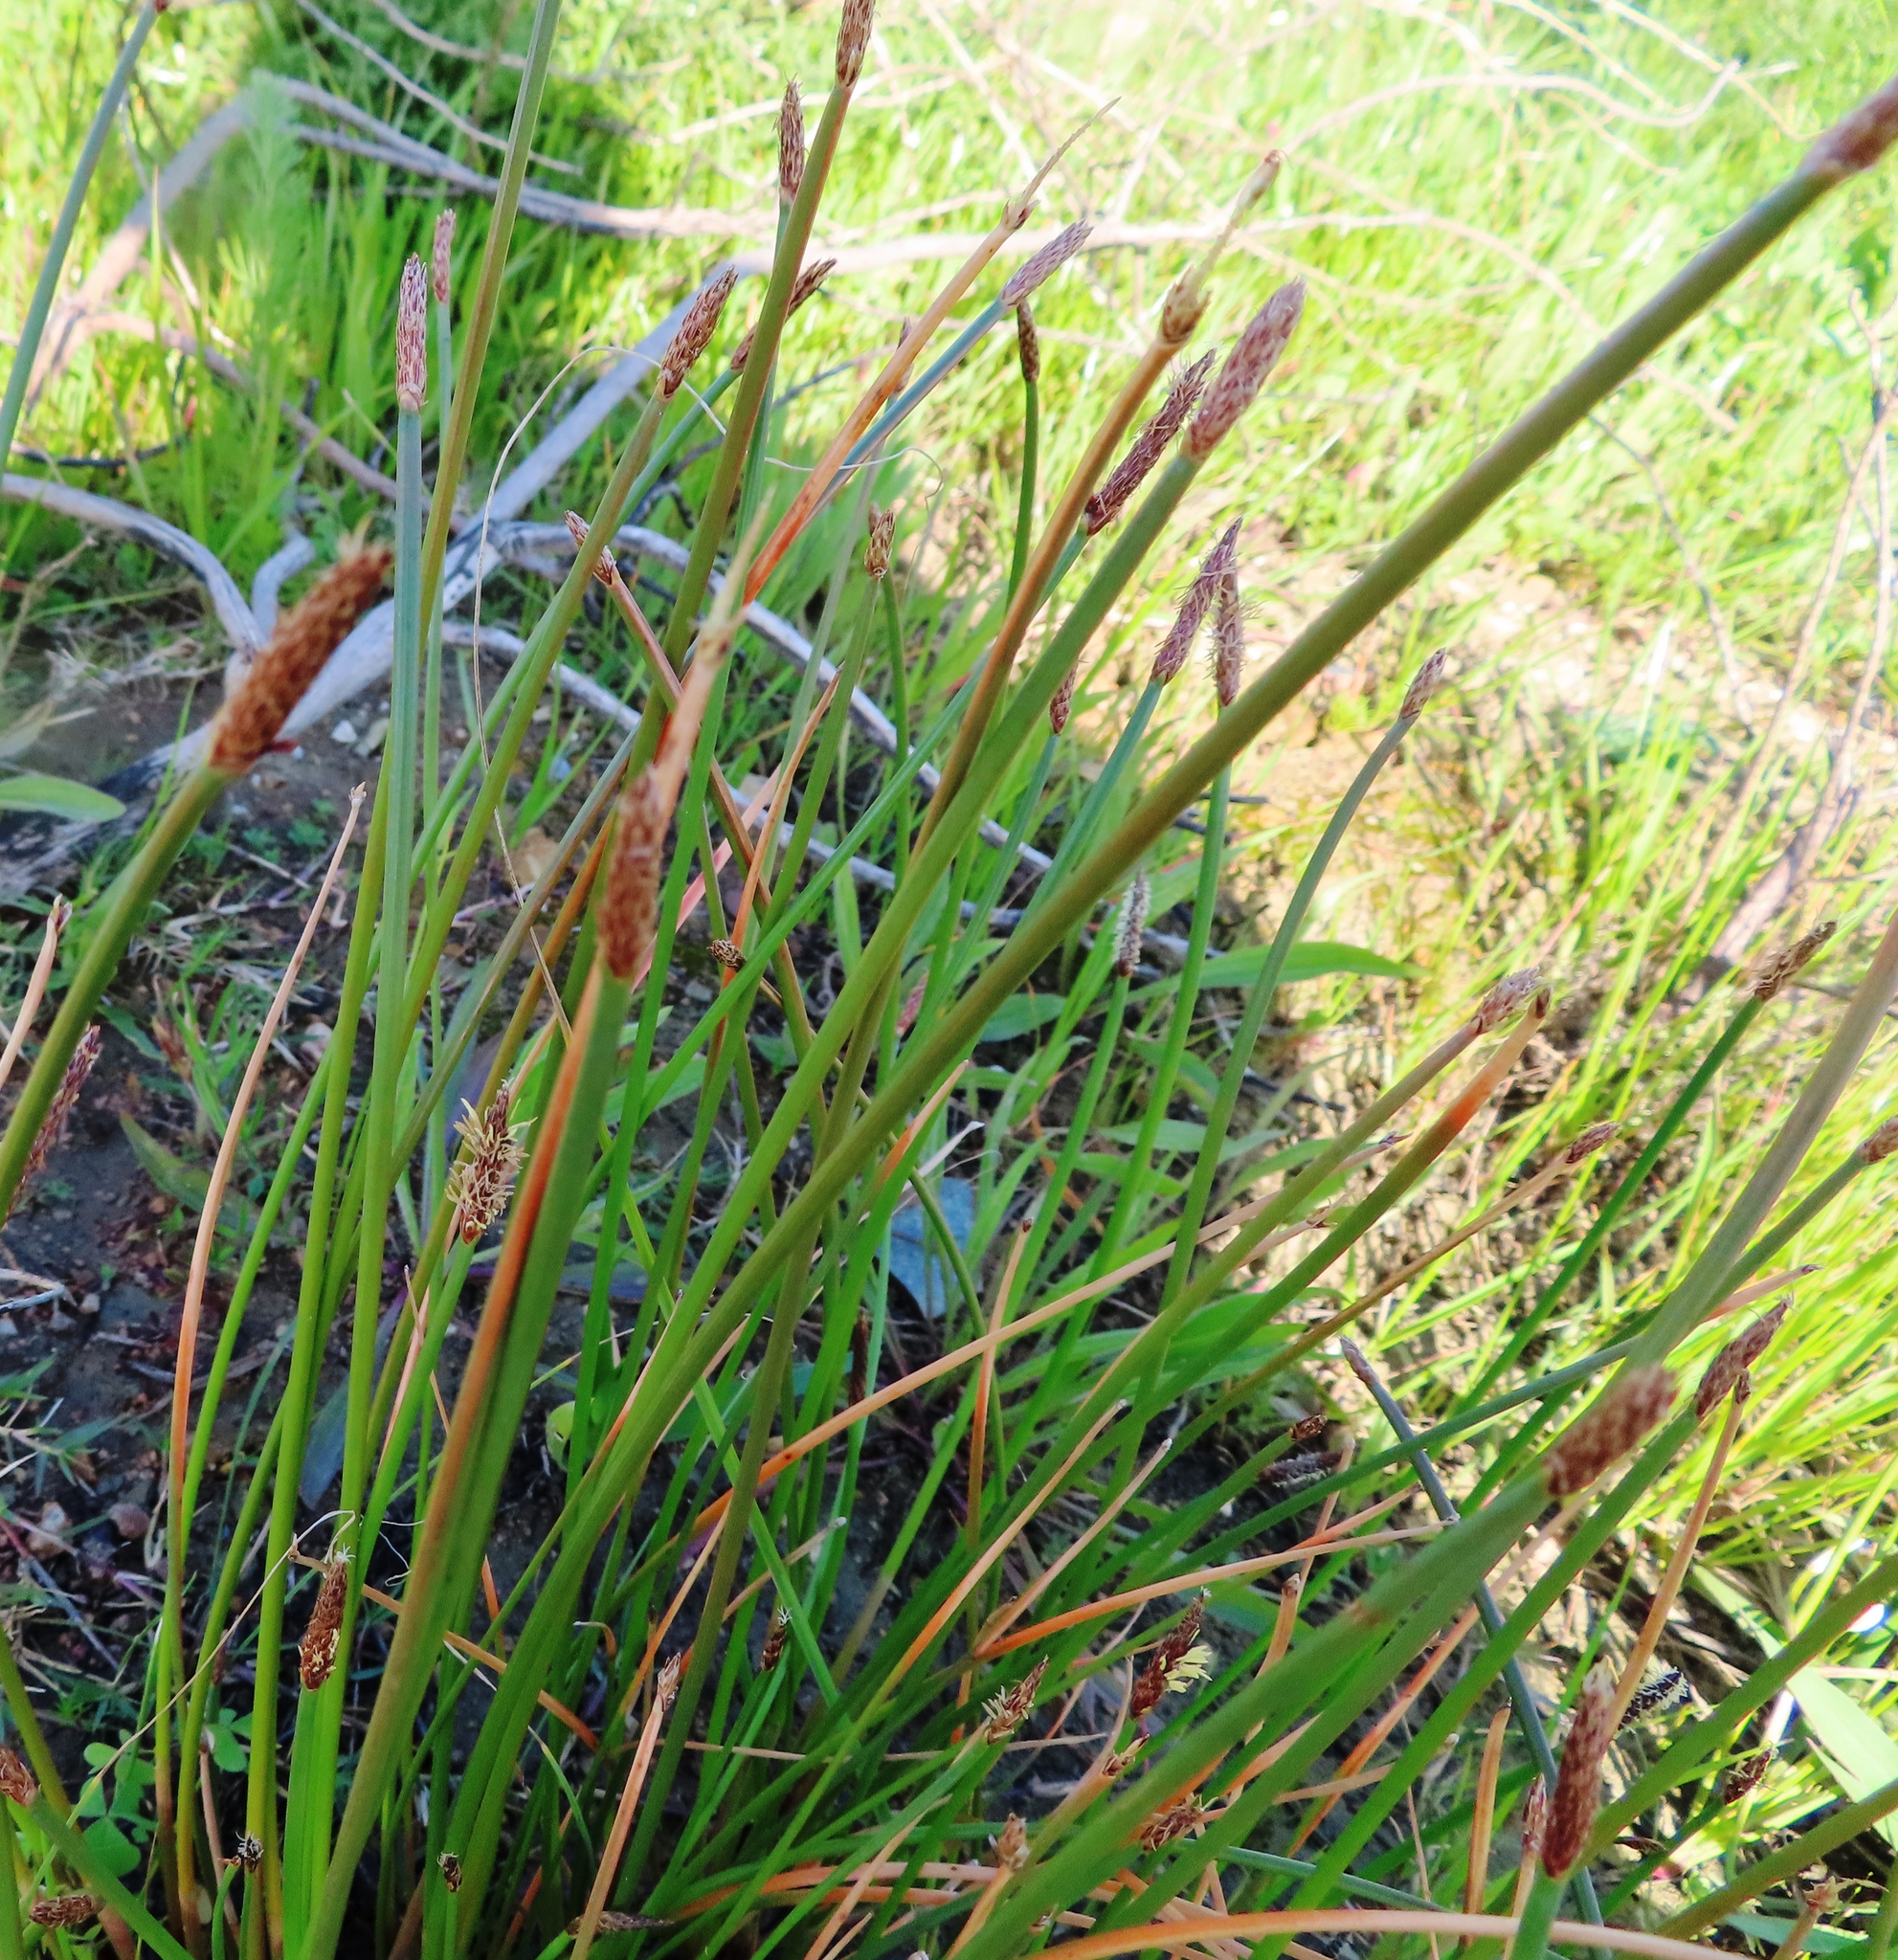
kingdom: Plantae
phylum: Tracheophyta
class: Liliopsida
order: Poales
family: Cyperaceae
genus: Eleocharis
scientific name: Eleocharis limosa
